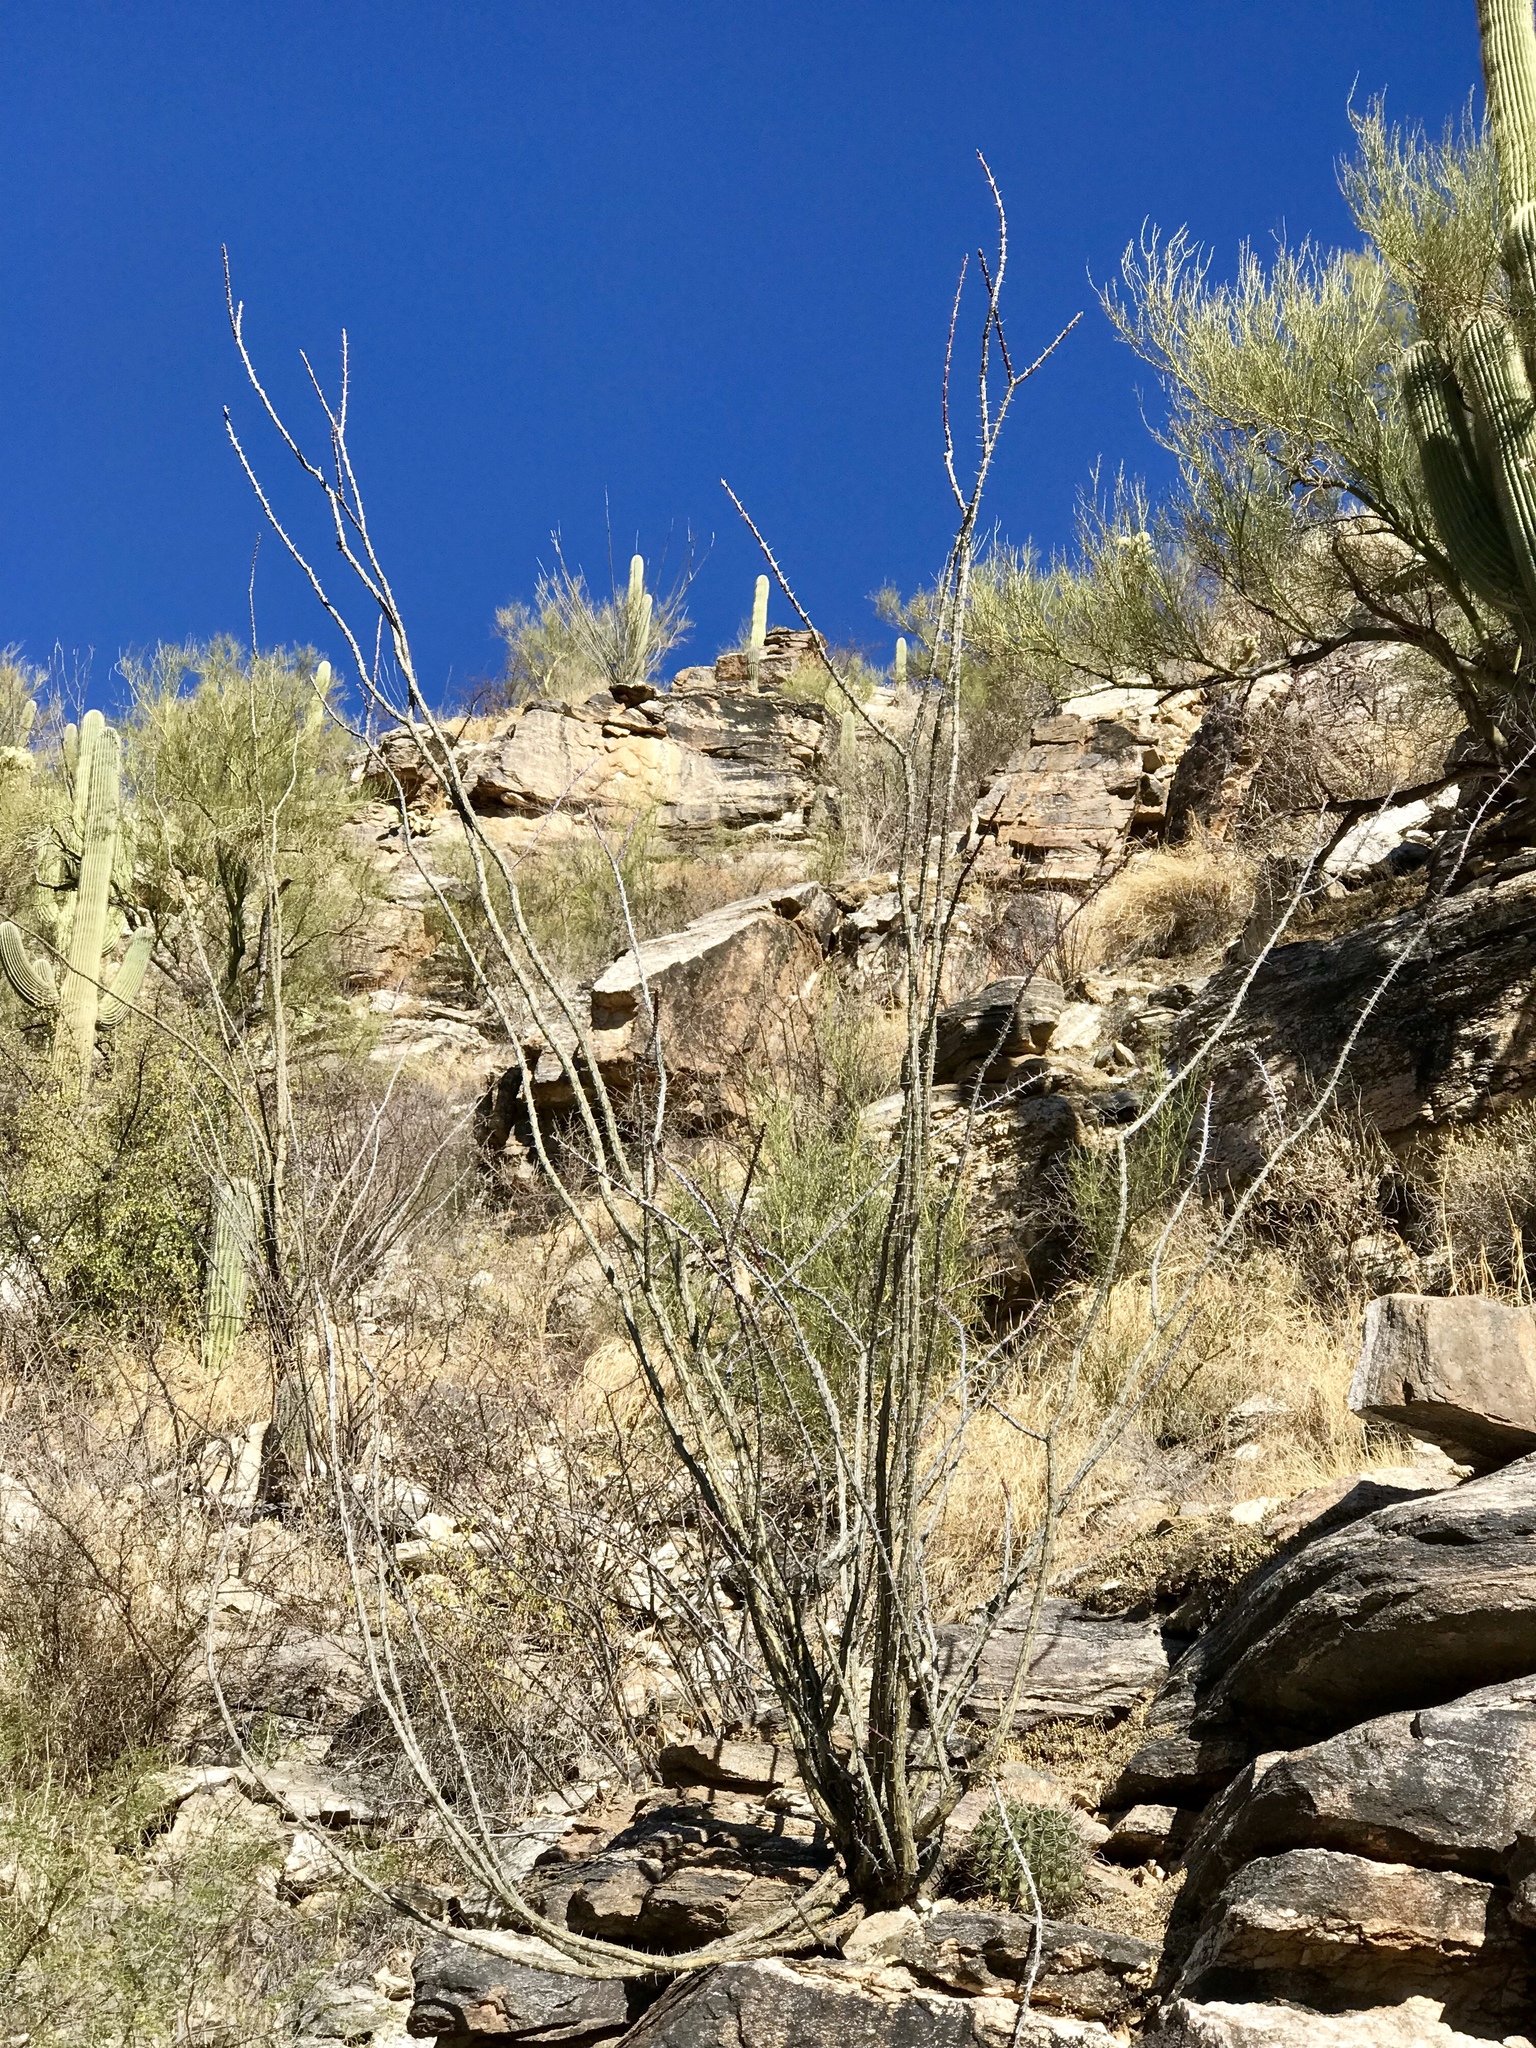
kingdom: Plantae
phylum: Tracheophyta
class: Magnoliopsida
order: Ericales
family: Fouquieriaceae
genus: Fouquieria
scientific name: Fouquieria splendens
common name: Vine-cactus
